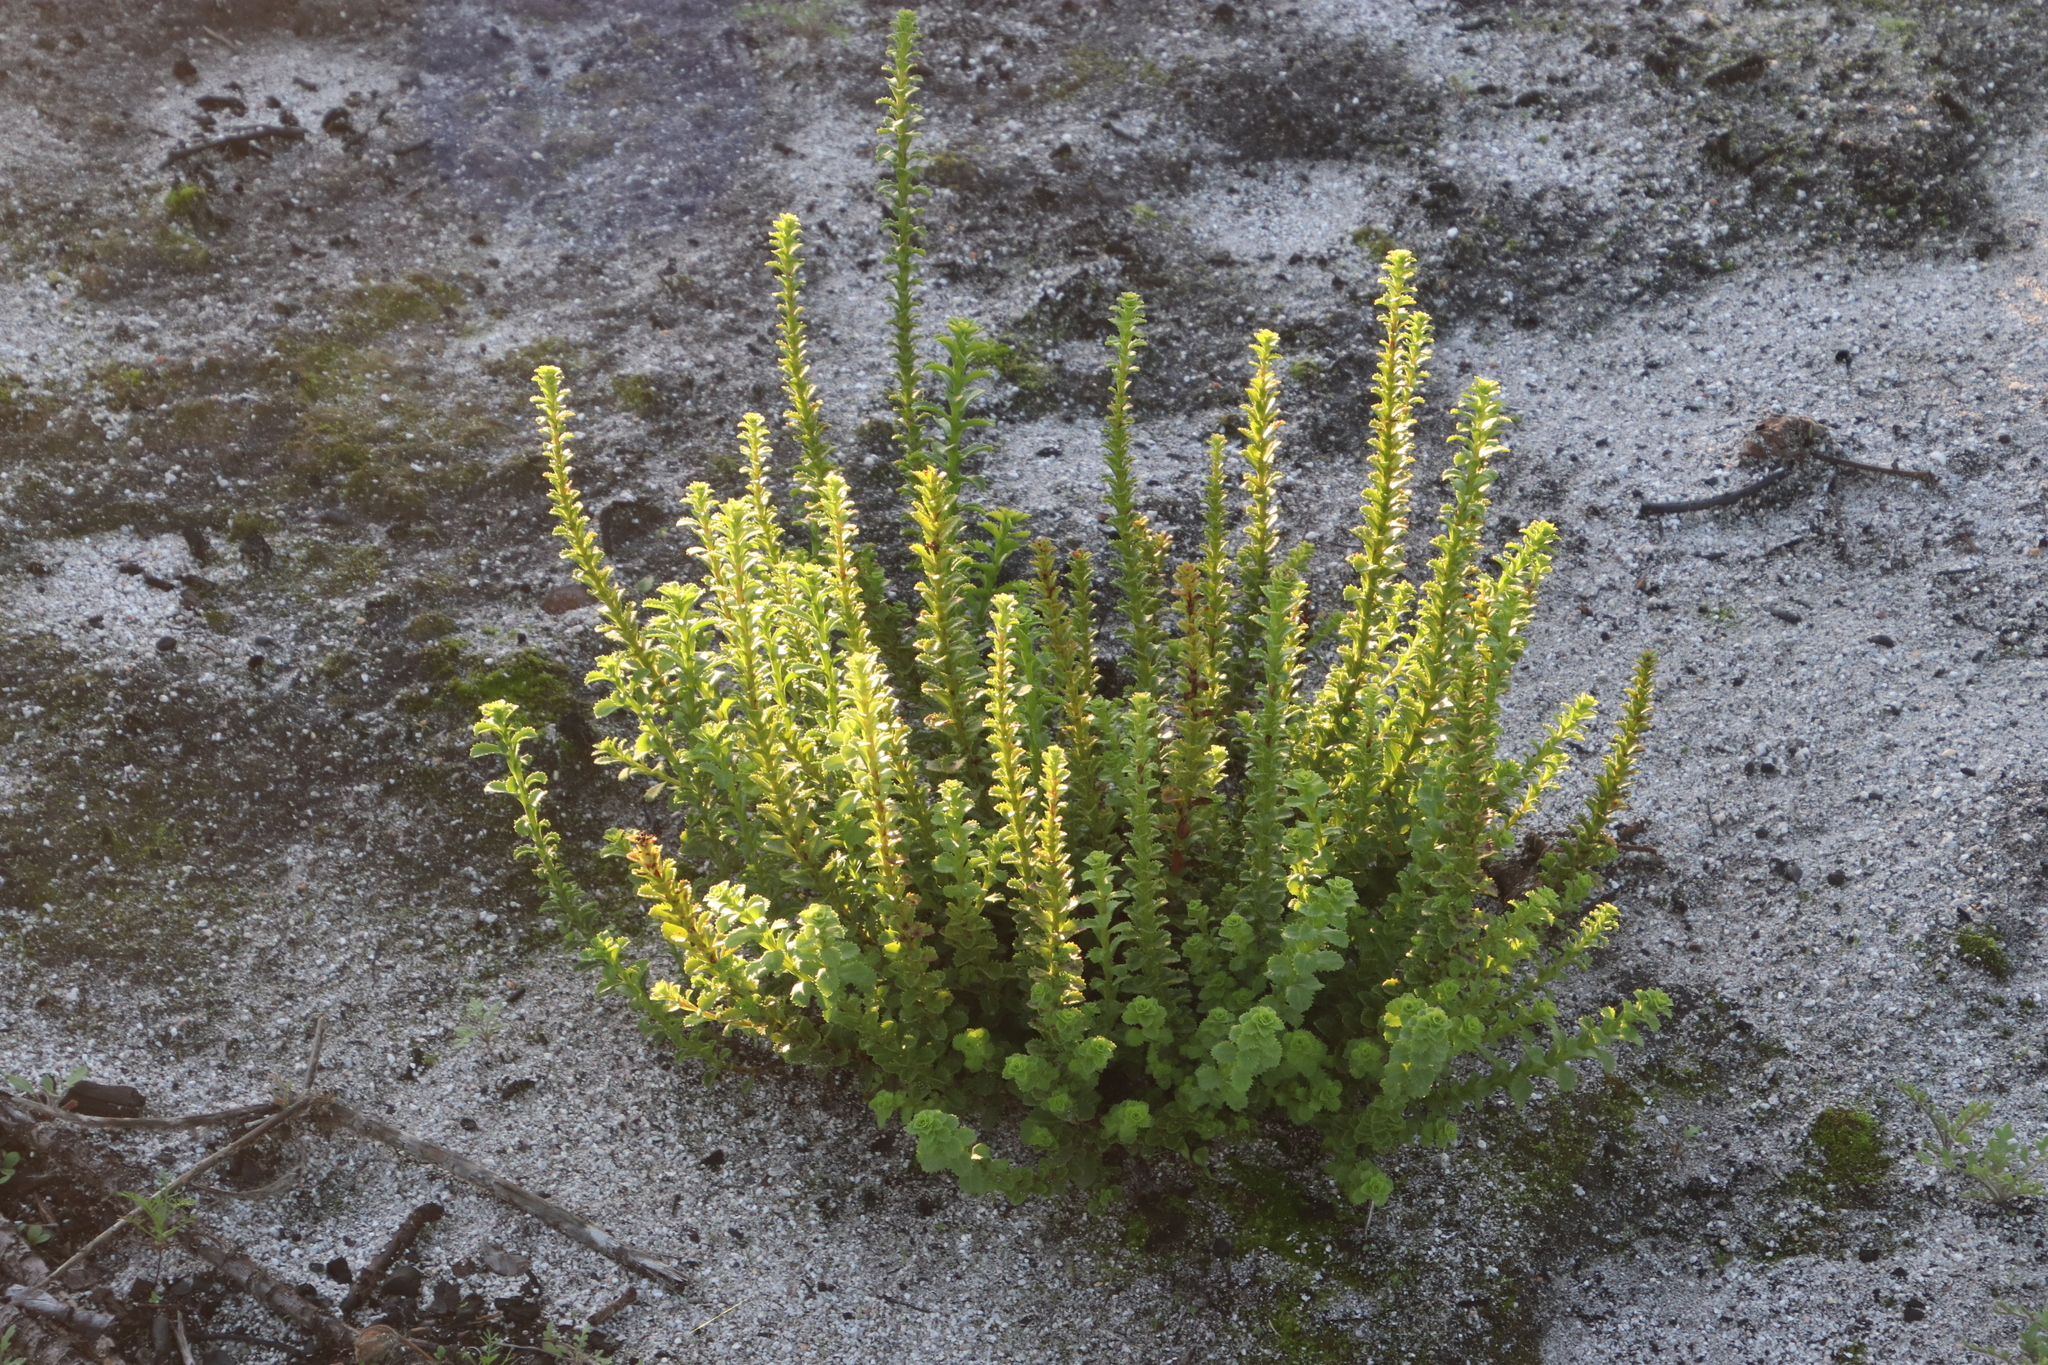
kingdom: Plantae
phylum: Tracheophyta
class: Magnoliopsida
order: Lamiales
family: Scrophulariaceae
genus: Pseudoselago
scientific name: Pseudoselago serrata
